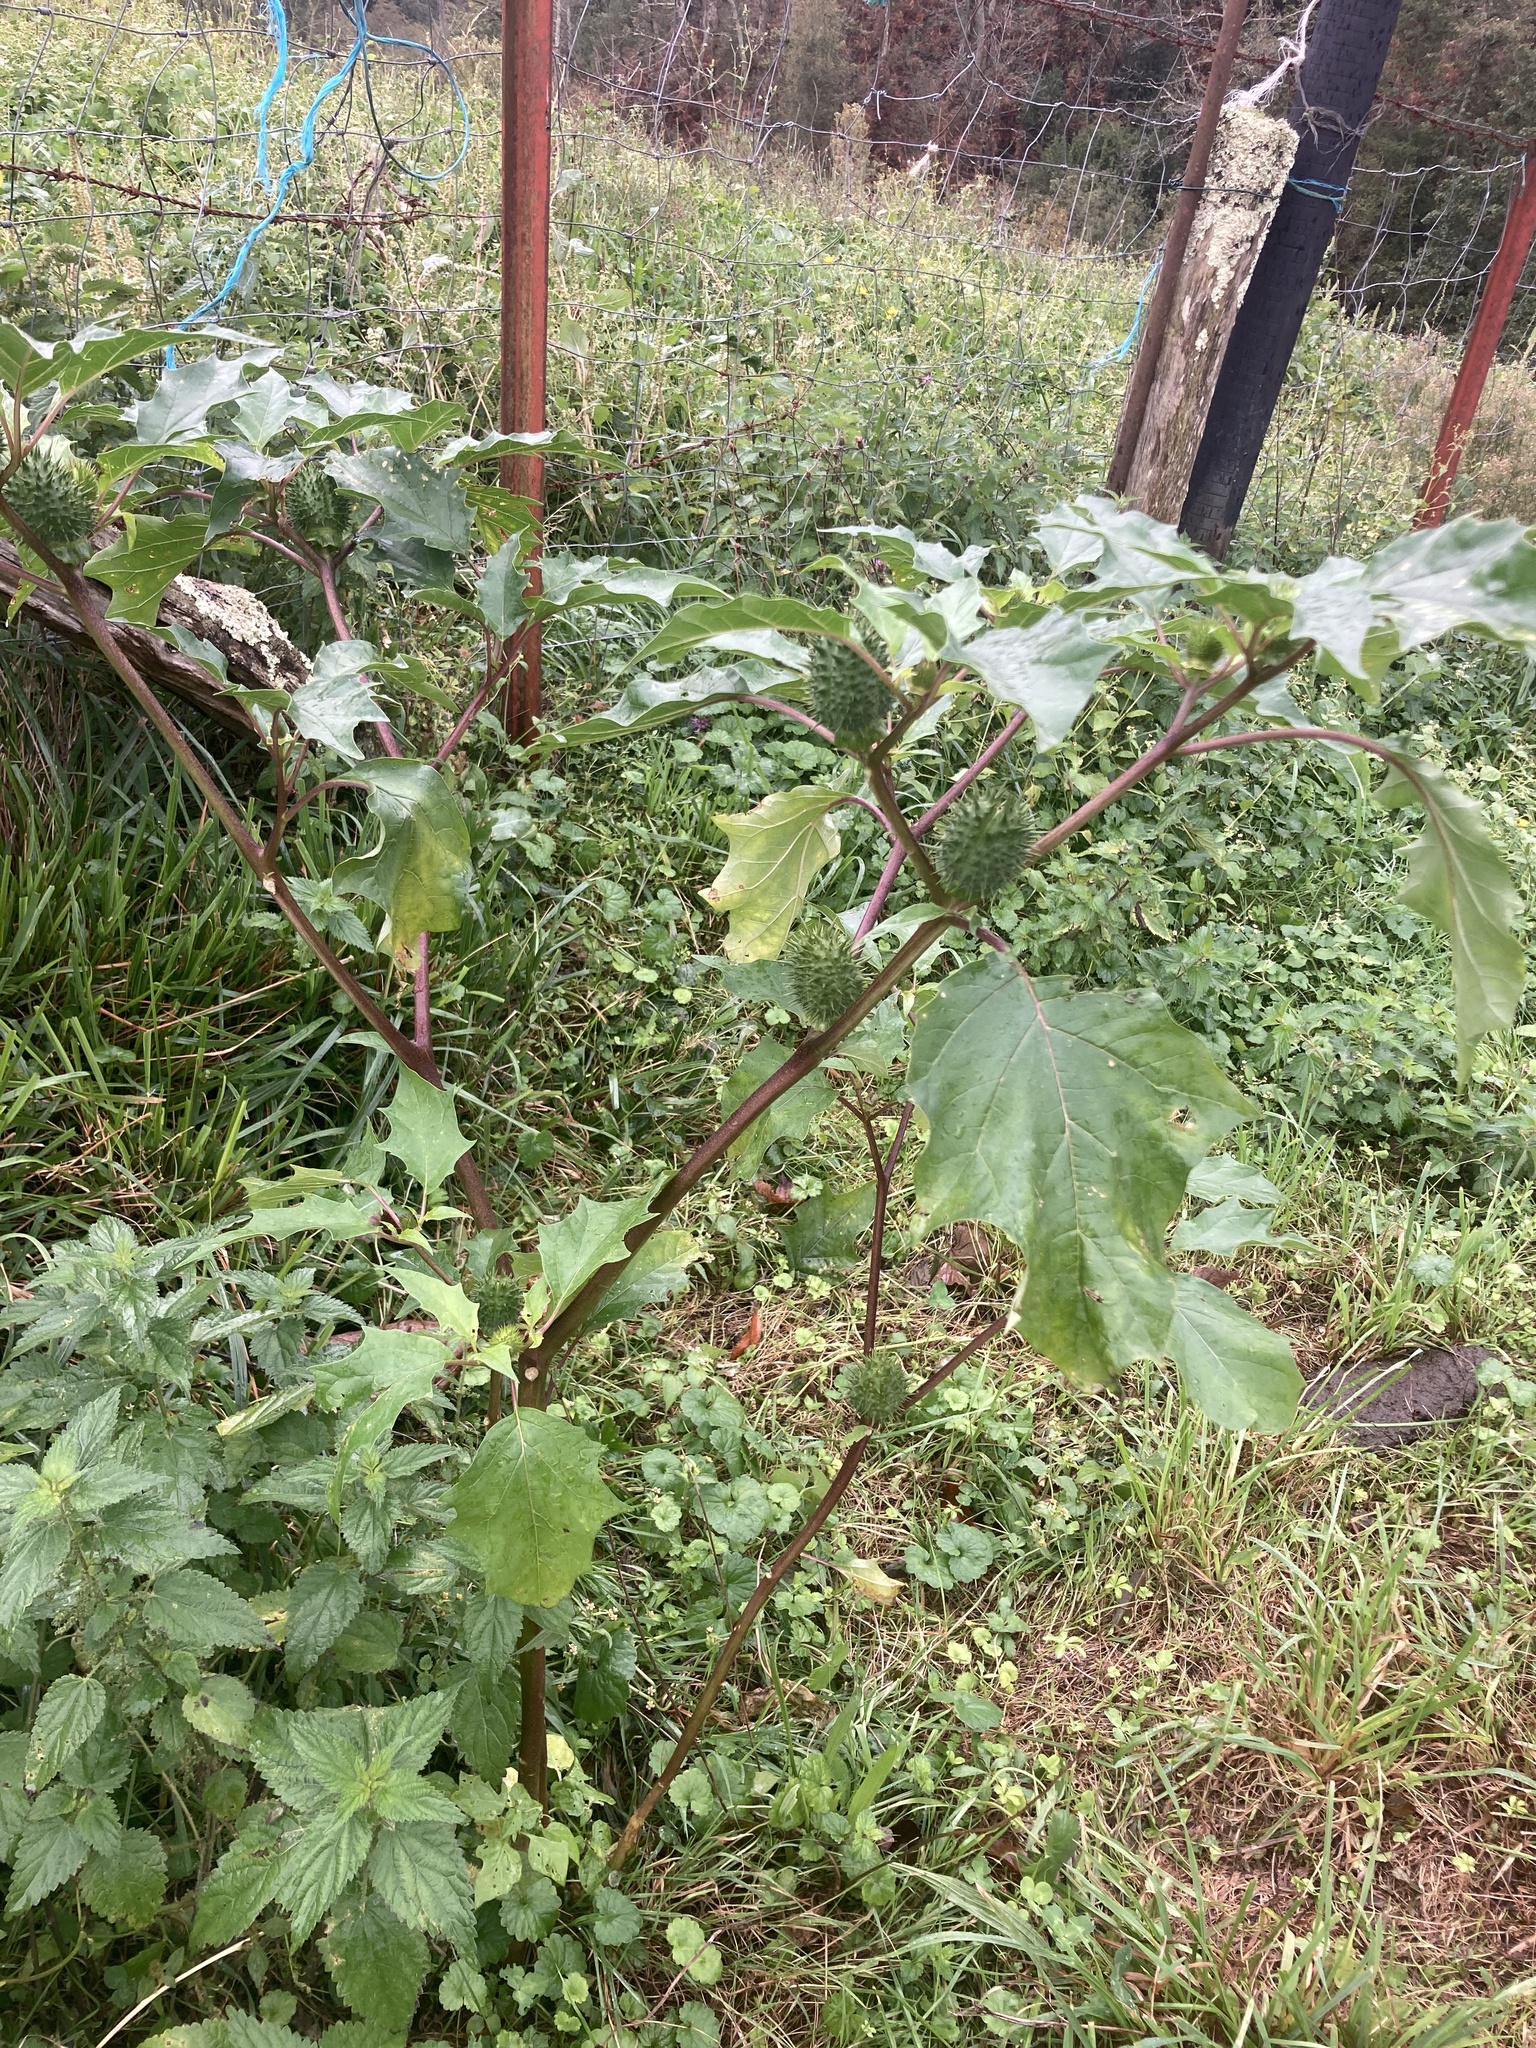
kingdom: Plantae
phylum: Tracheophyta
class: Magnoliopsida
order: Solanales
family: Solanaceae
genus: Datura
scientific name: Datura stramonium
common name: Thorn-apple
